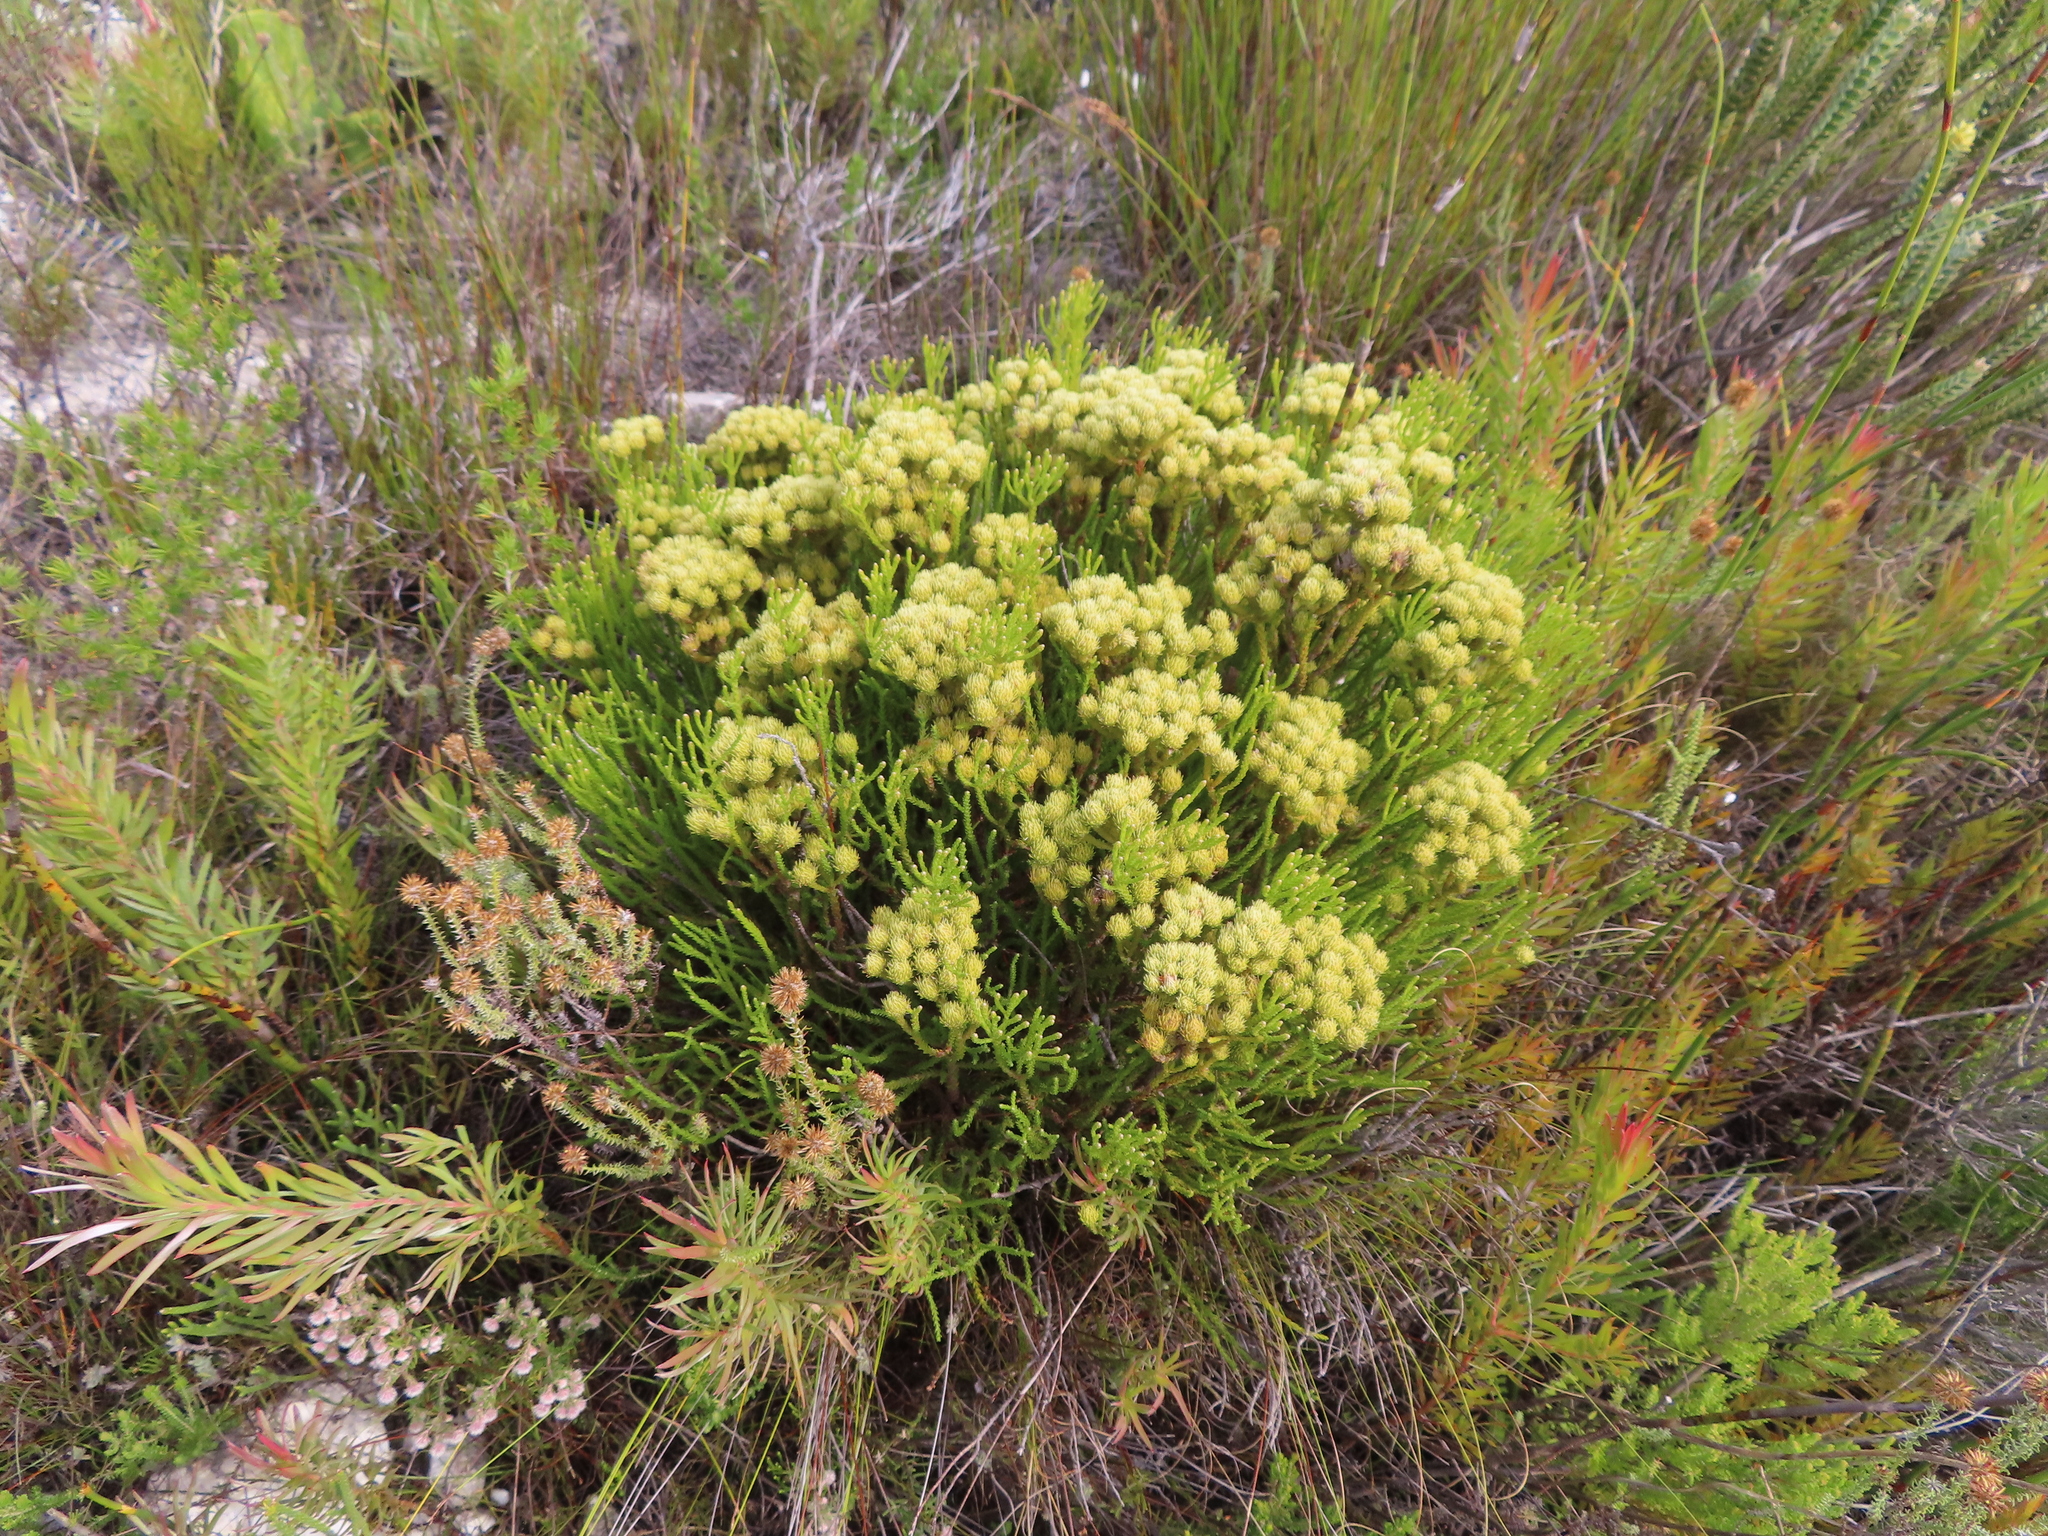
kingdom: Plantae
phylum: Tracheophyta
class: Magnoliopsida
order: Bruniales
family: Bruniaceae
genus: Brunia
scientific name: Brunia paleacea
